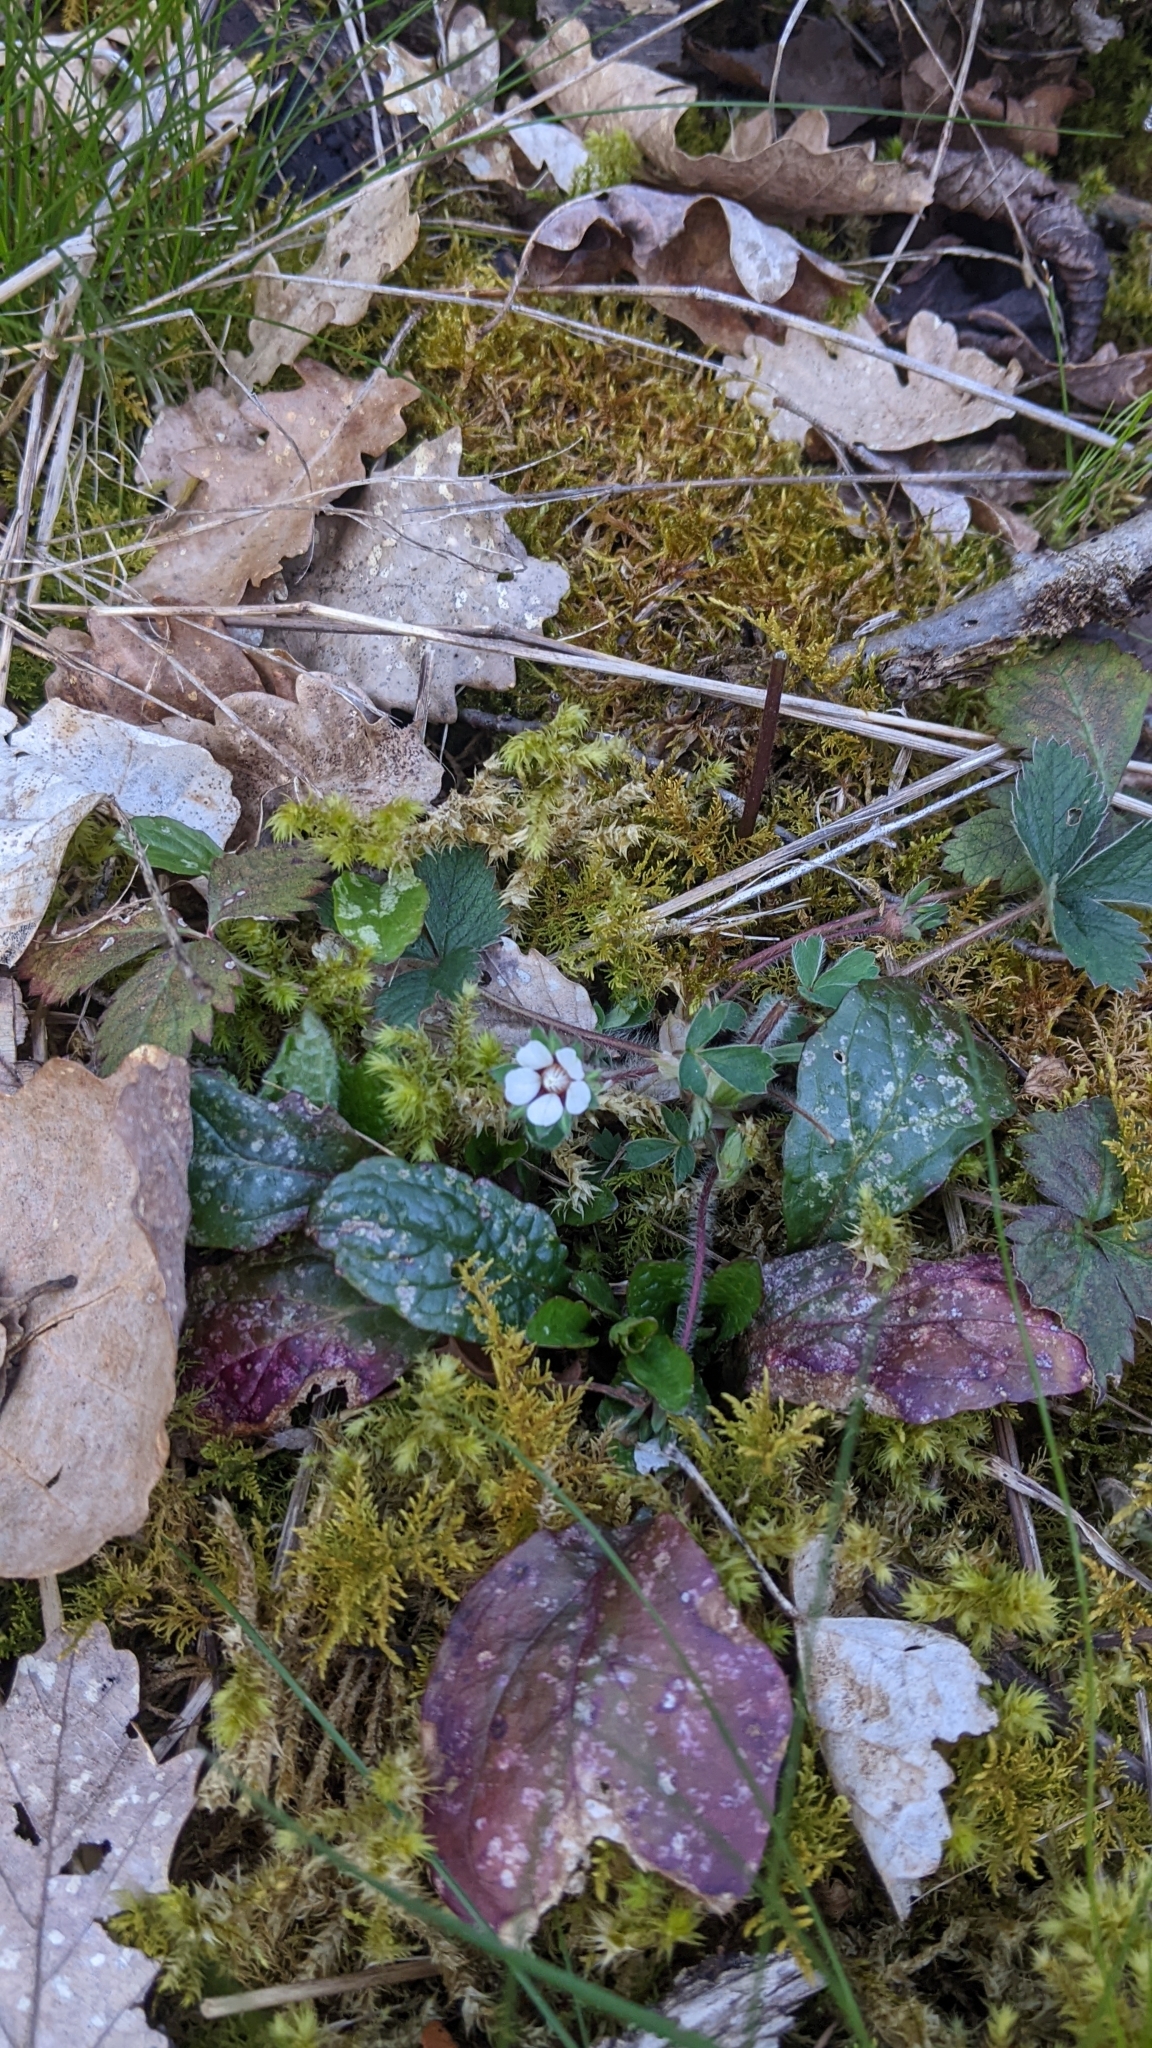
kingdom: Plantae
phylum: Tracheophyta
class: Magnoliopsida
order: Rosales
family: Rosaceae
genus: Potentilla
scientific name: Potentilla micrantha
